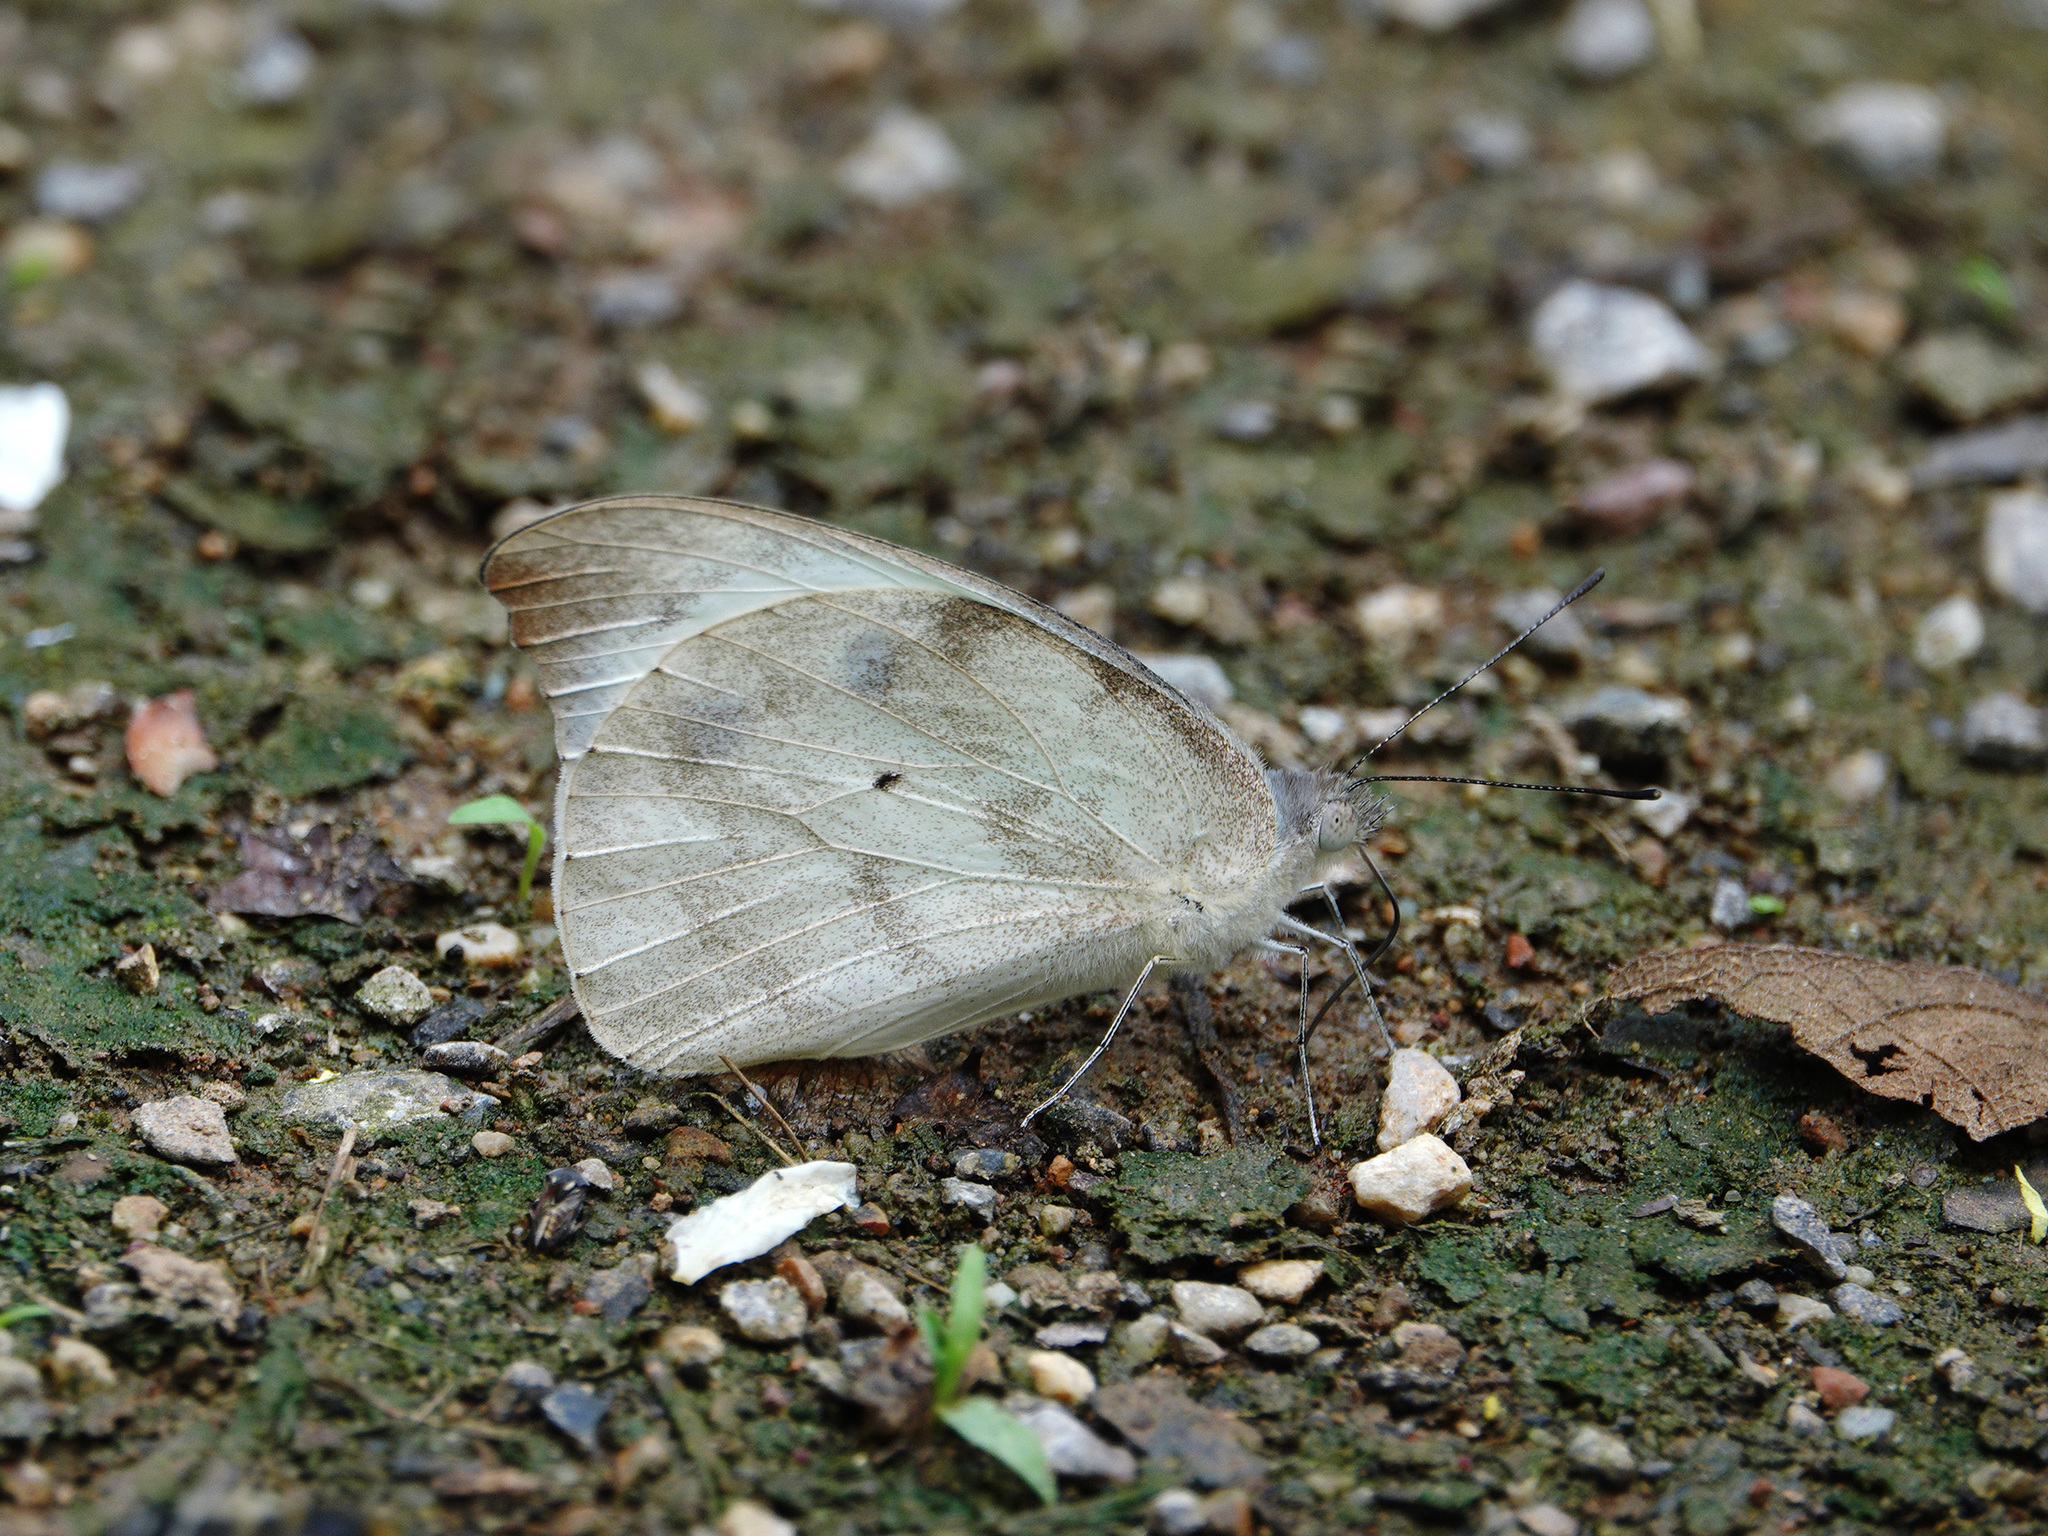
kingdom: Animalia
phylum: Arthropoda
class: Insecta
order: Lepidoptera
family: Pieridae
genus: Appias
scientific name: Appias lalage
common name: Spot puffin
